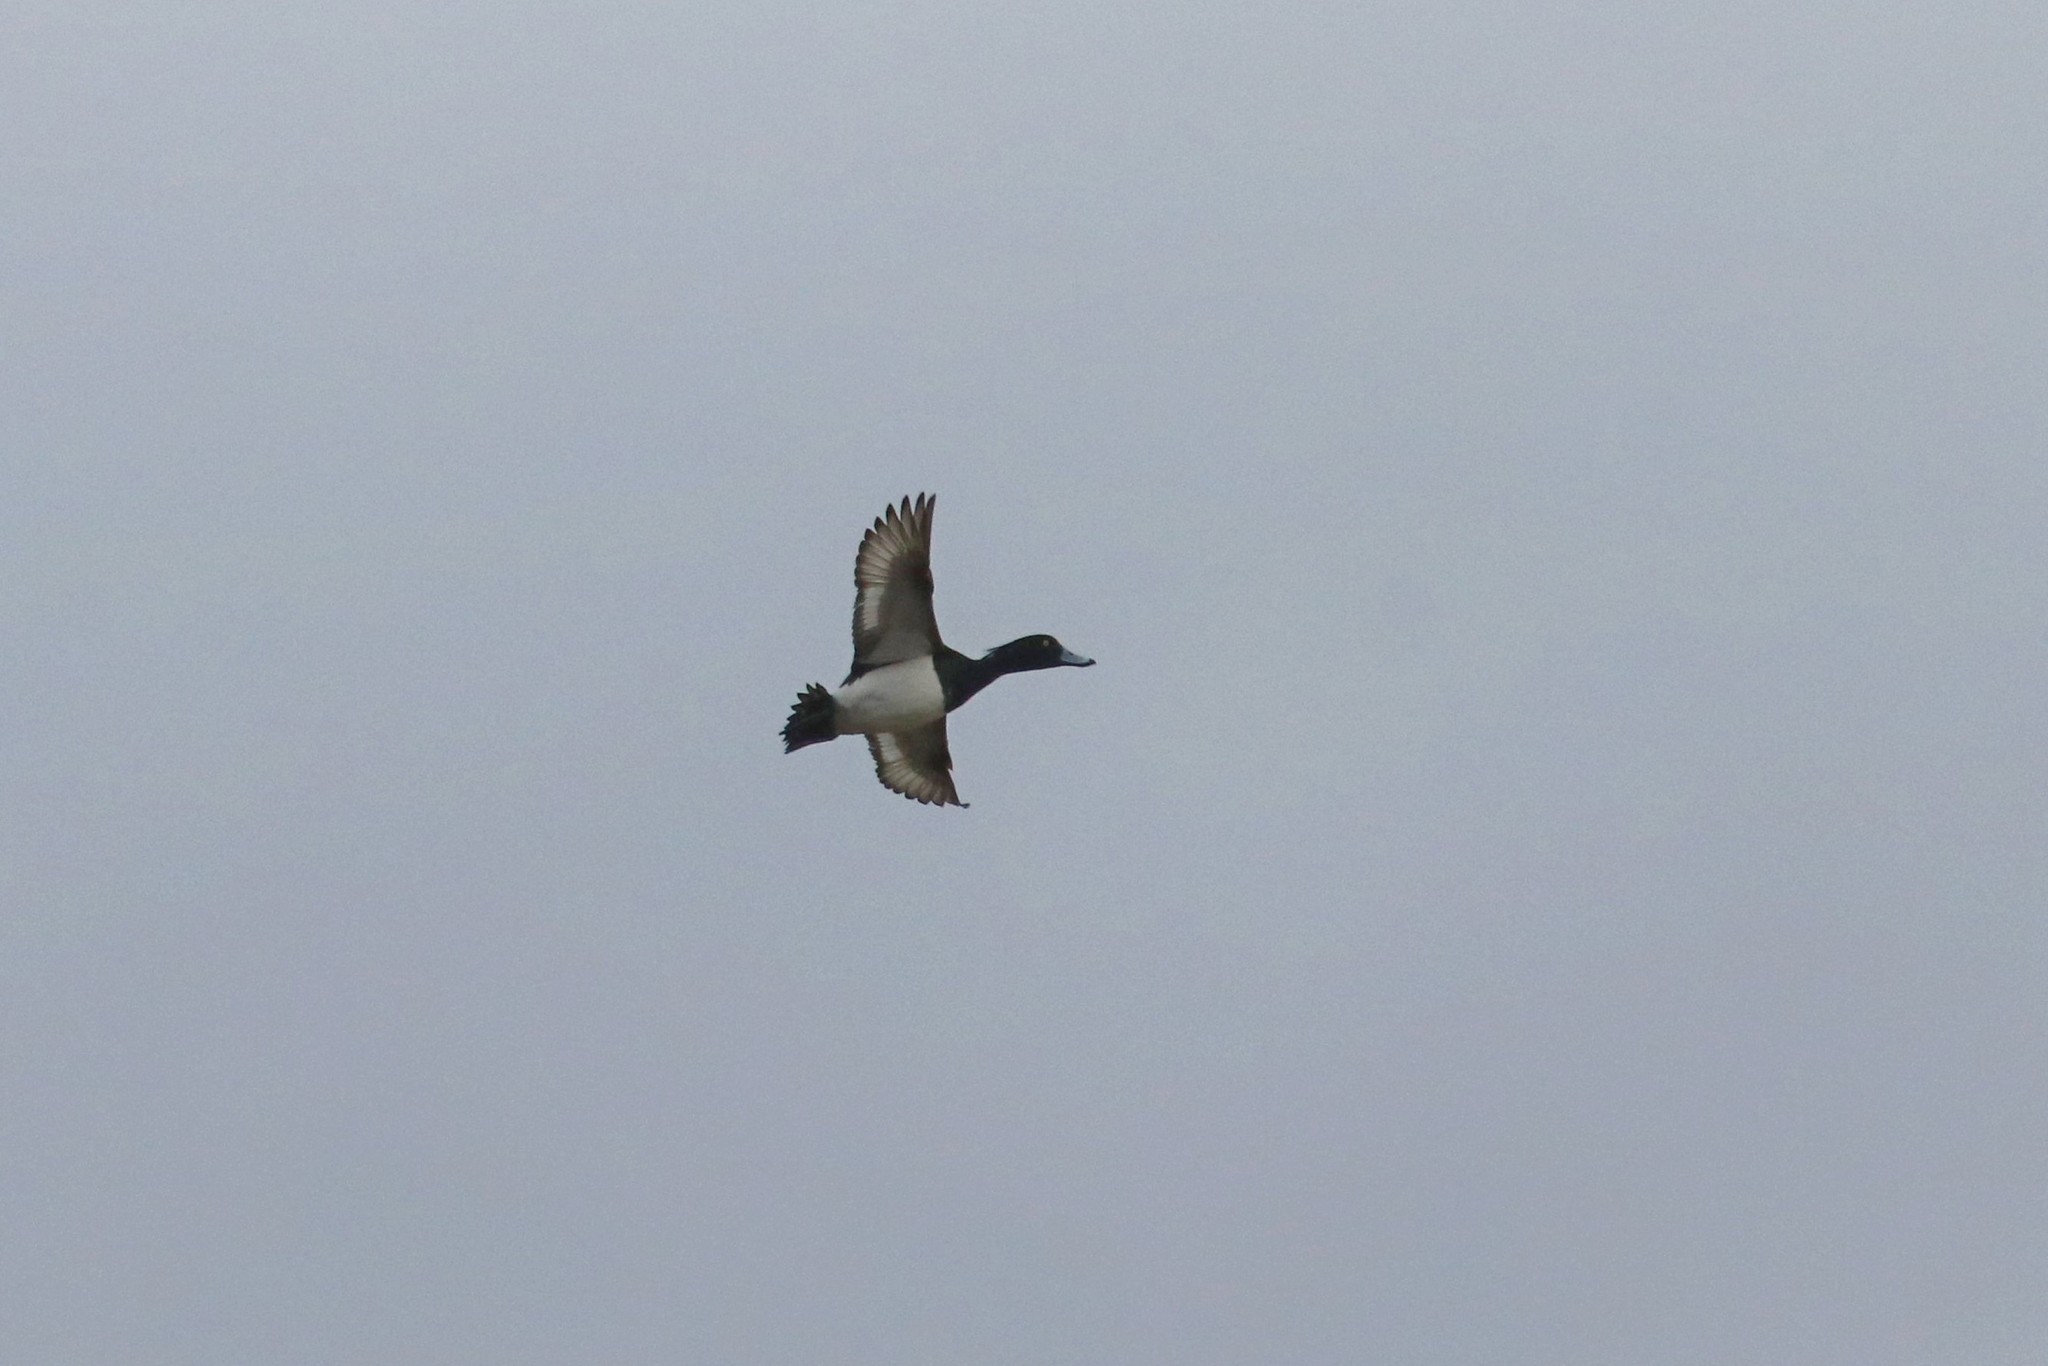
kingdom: Animalia
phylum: Chordata
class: Aves
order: Anseriformes
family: Anatidae
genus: Aythya
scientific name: Aythya fuligula
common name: Tufted duck
